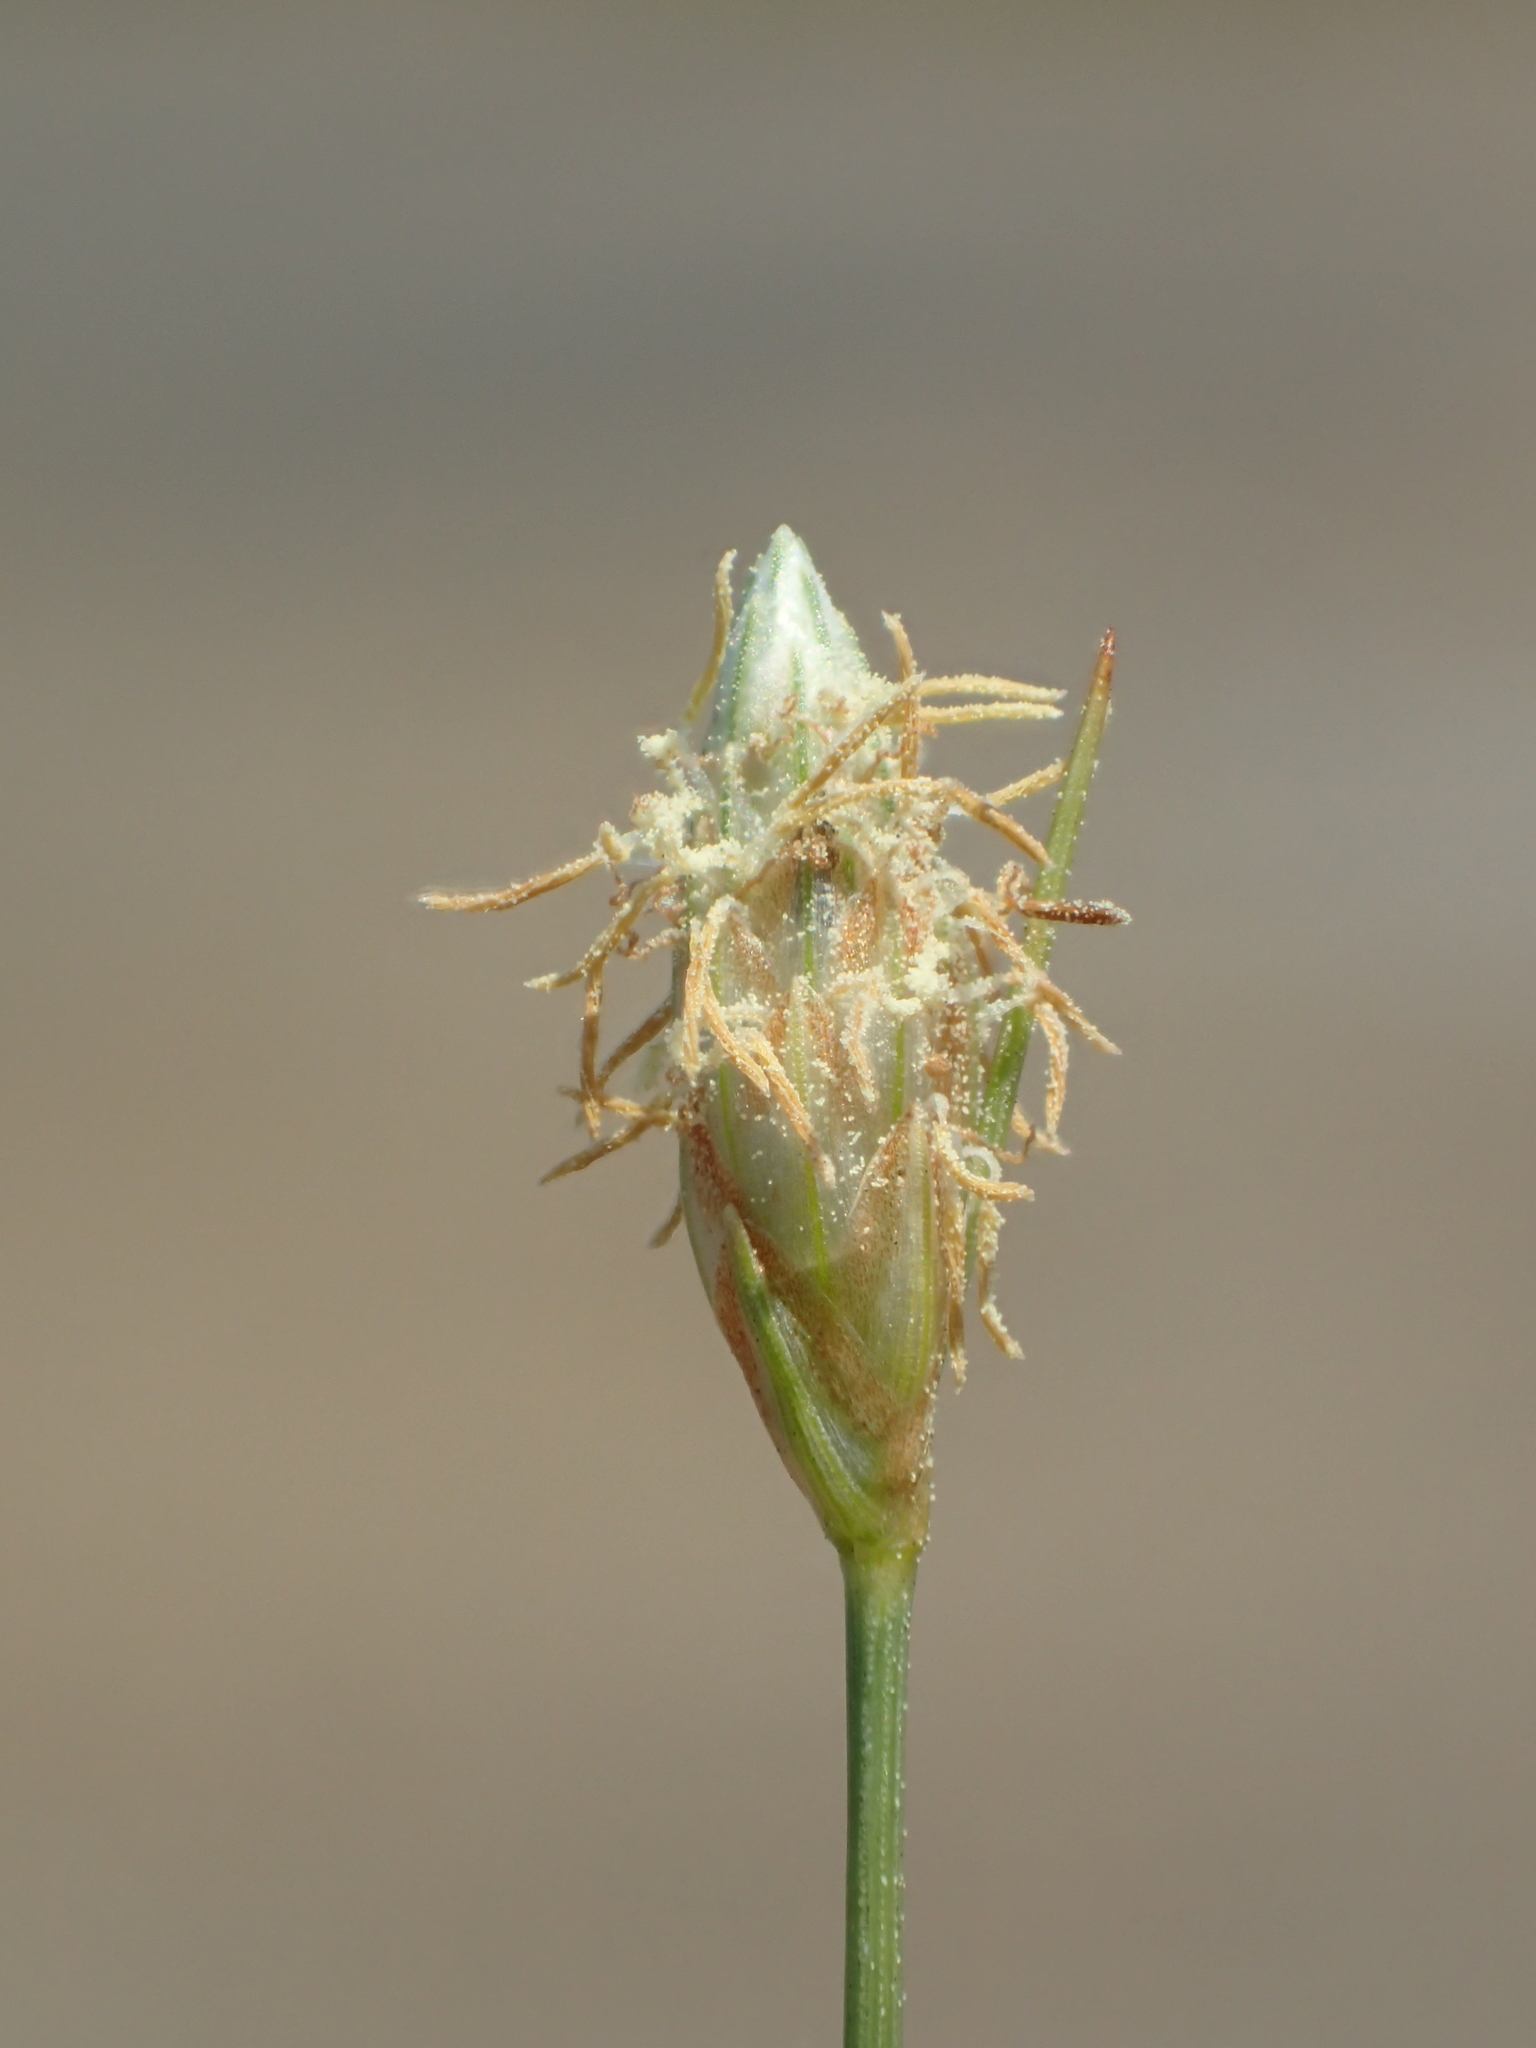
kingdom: Plantae
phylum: Tracheophyta
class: Liliopsida
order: Poales
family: Cyperaceae
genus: Fimbristylis
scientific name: Fimbristylis polytrichoides
